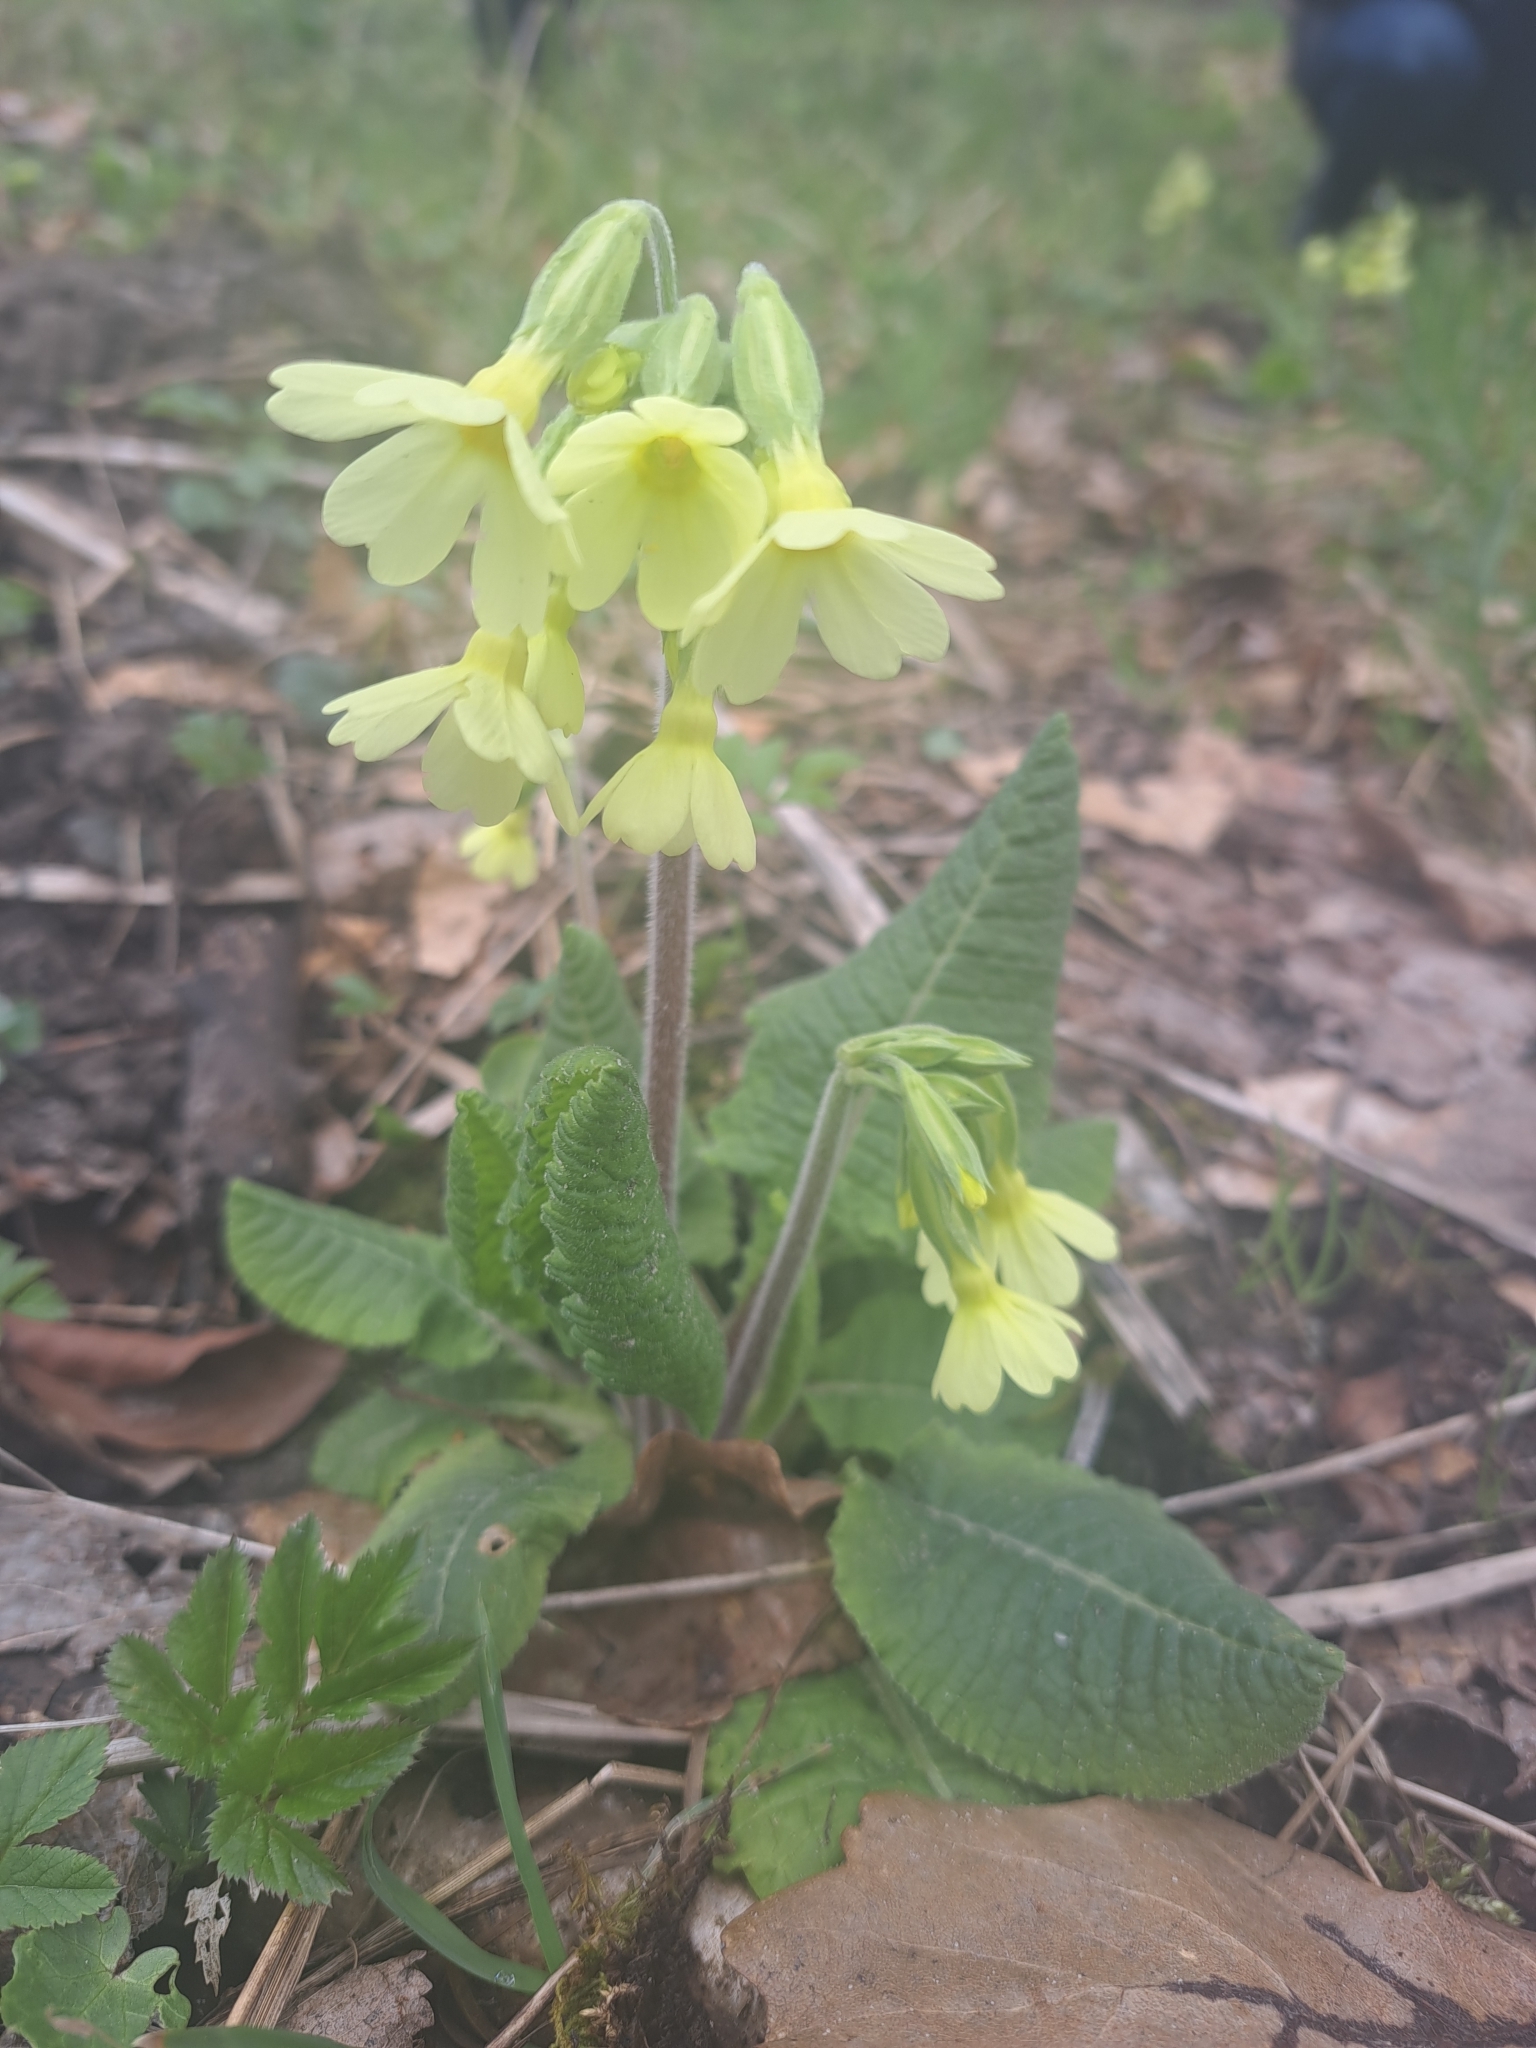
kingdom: Plantae
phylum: Tracheophyta
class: Magnoliopsida
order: Ericales
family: Primulaceae
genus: Primula
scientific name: Primula elatior
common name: Oxlip
